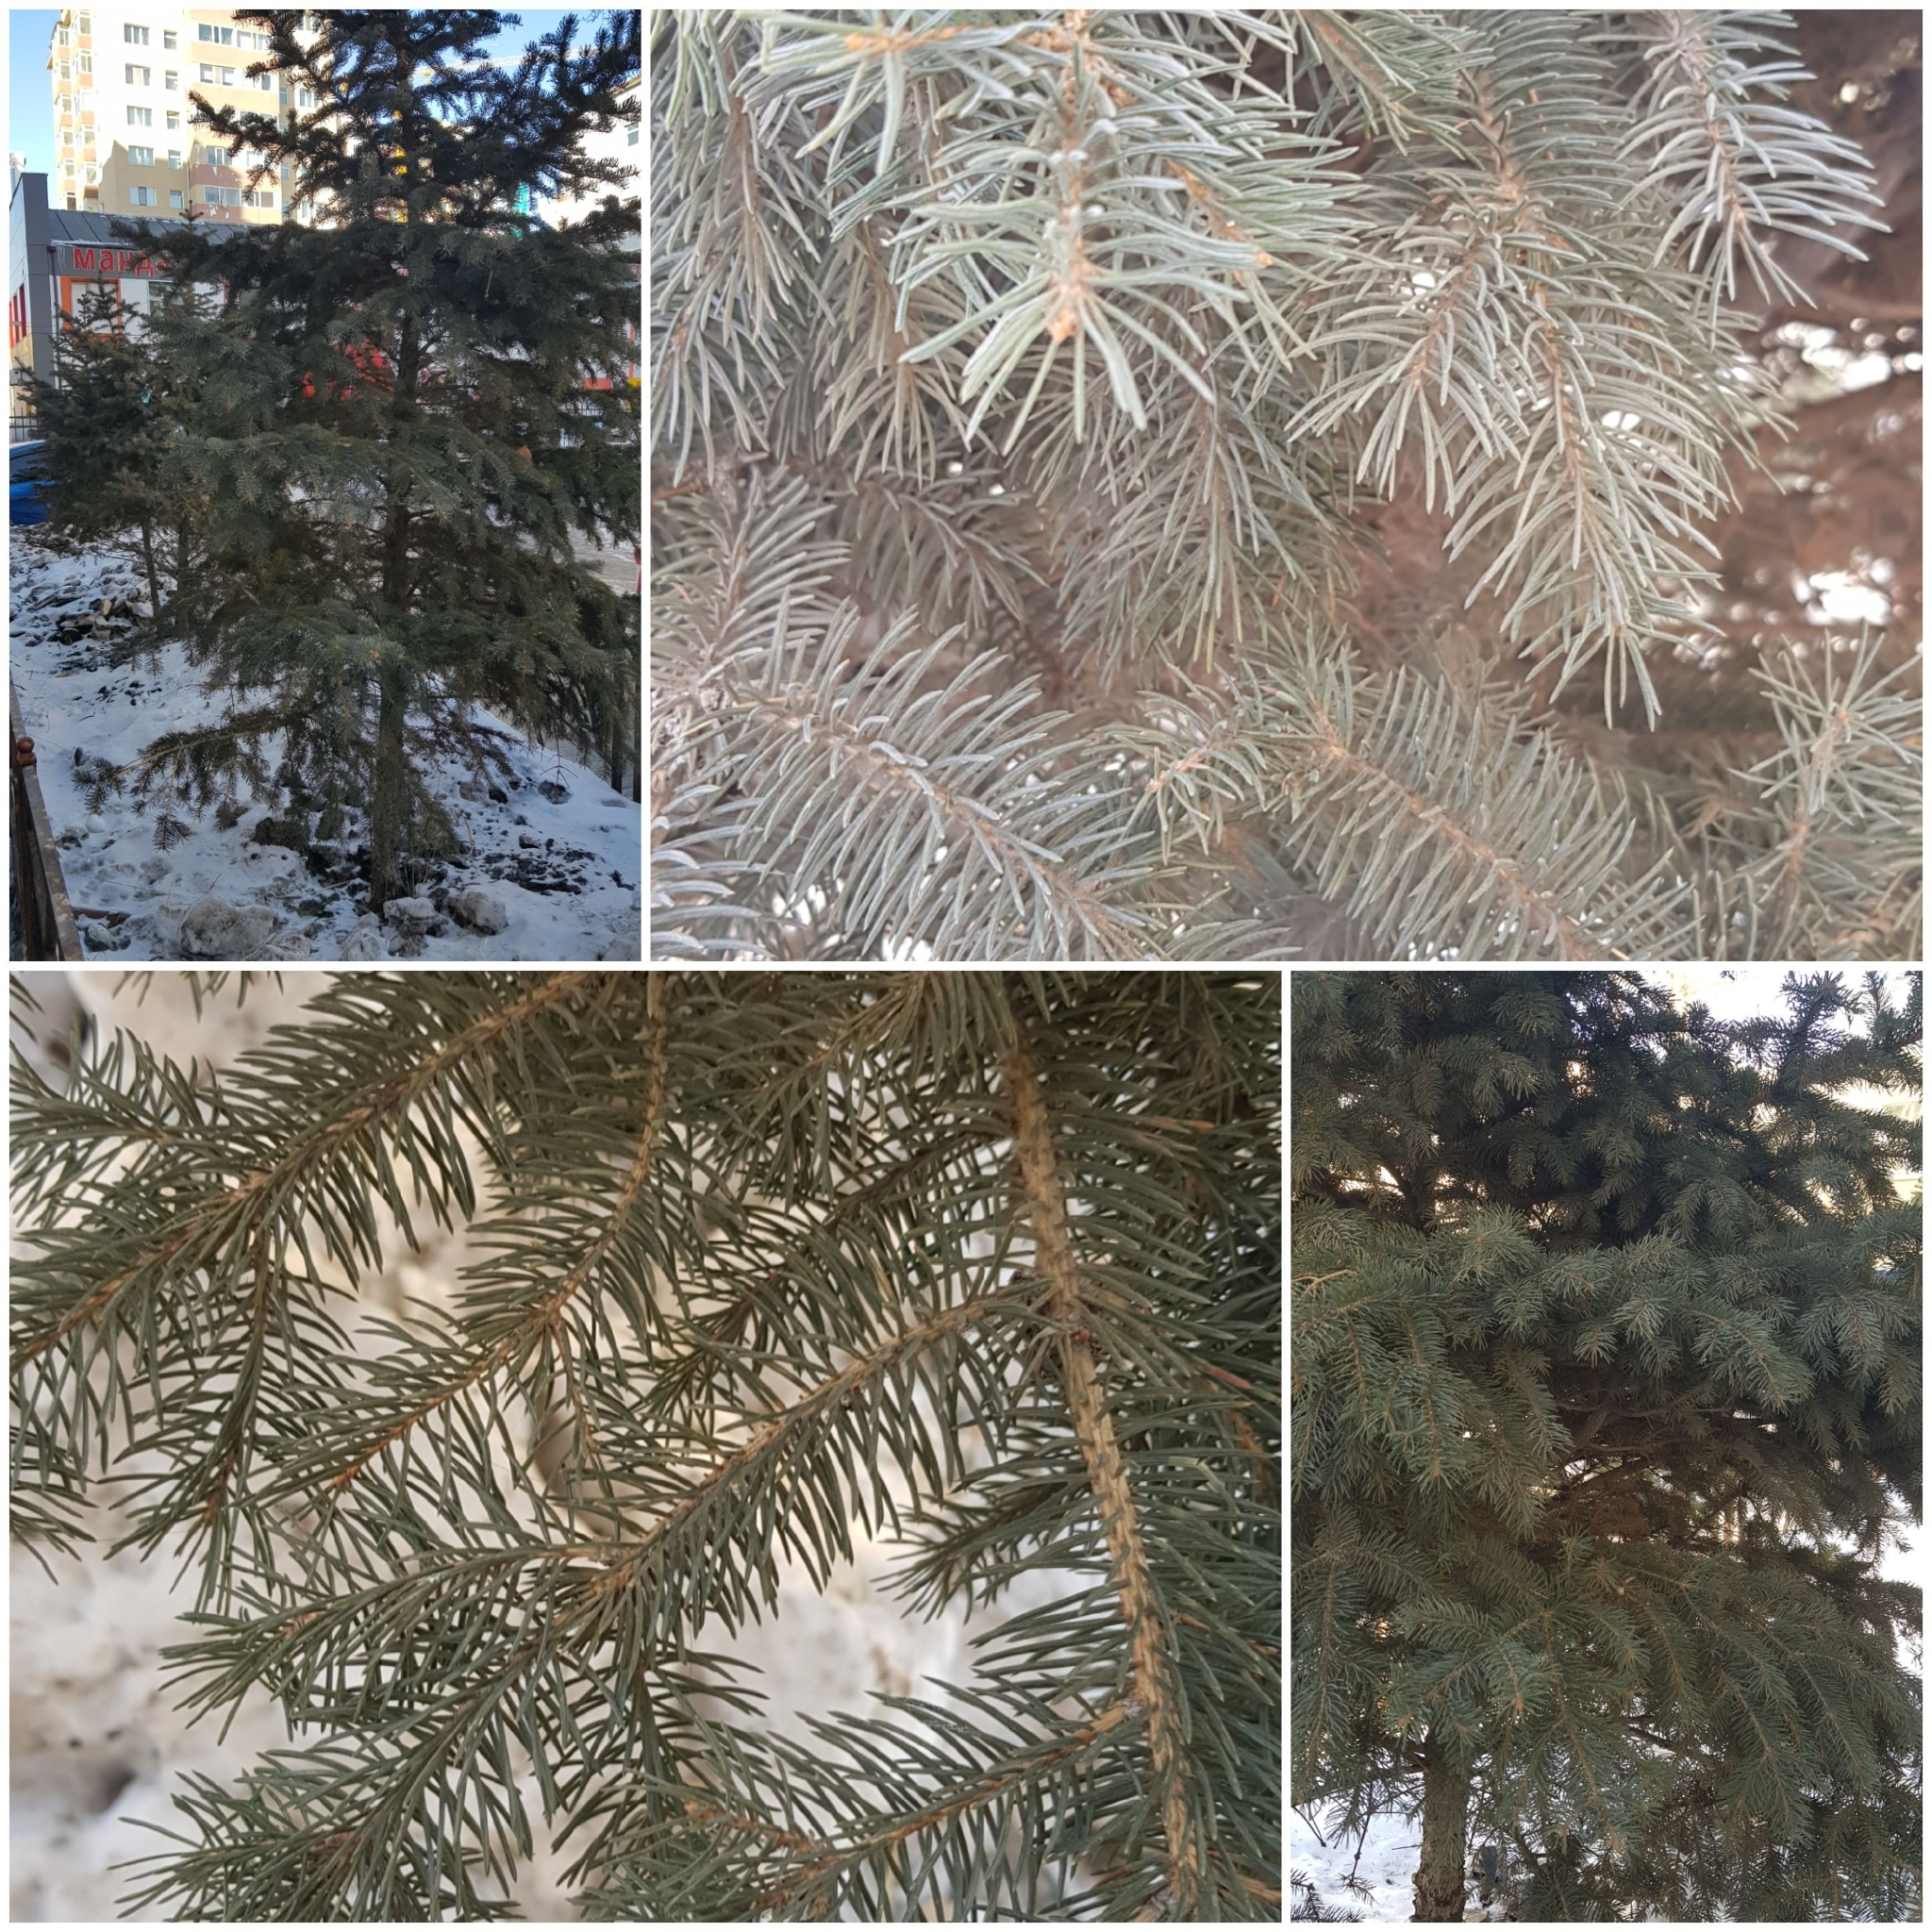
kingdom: Plantae
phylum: Tracheophyta
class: Pinopsida
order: Pinales
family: Pinaceae
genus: Picea
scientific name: Picea glauca
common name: White spruce
